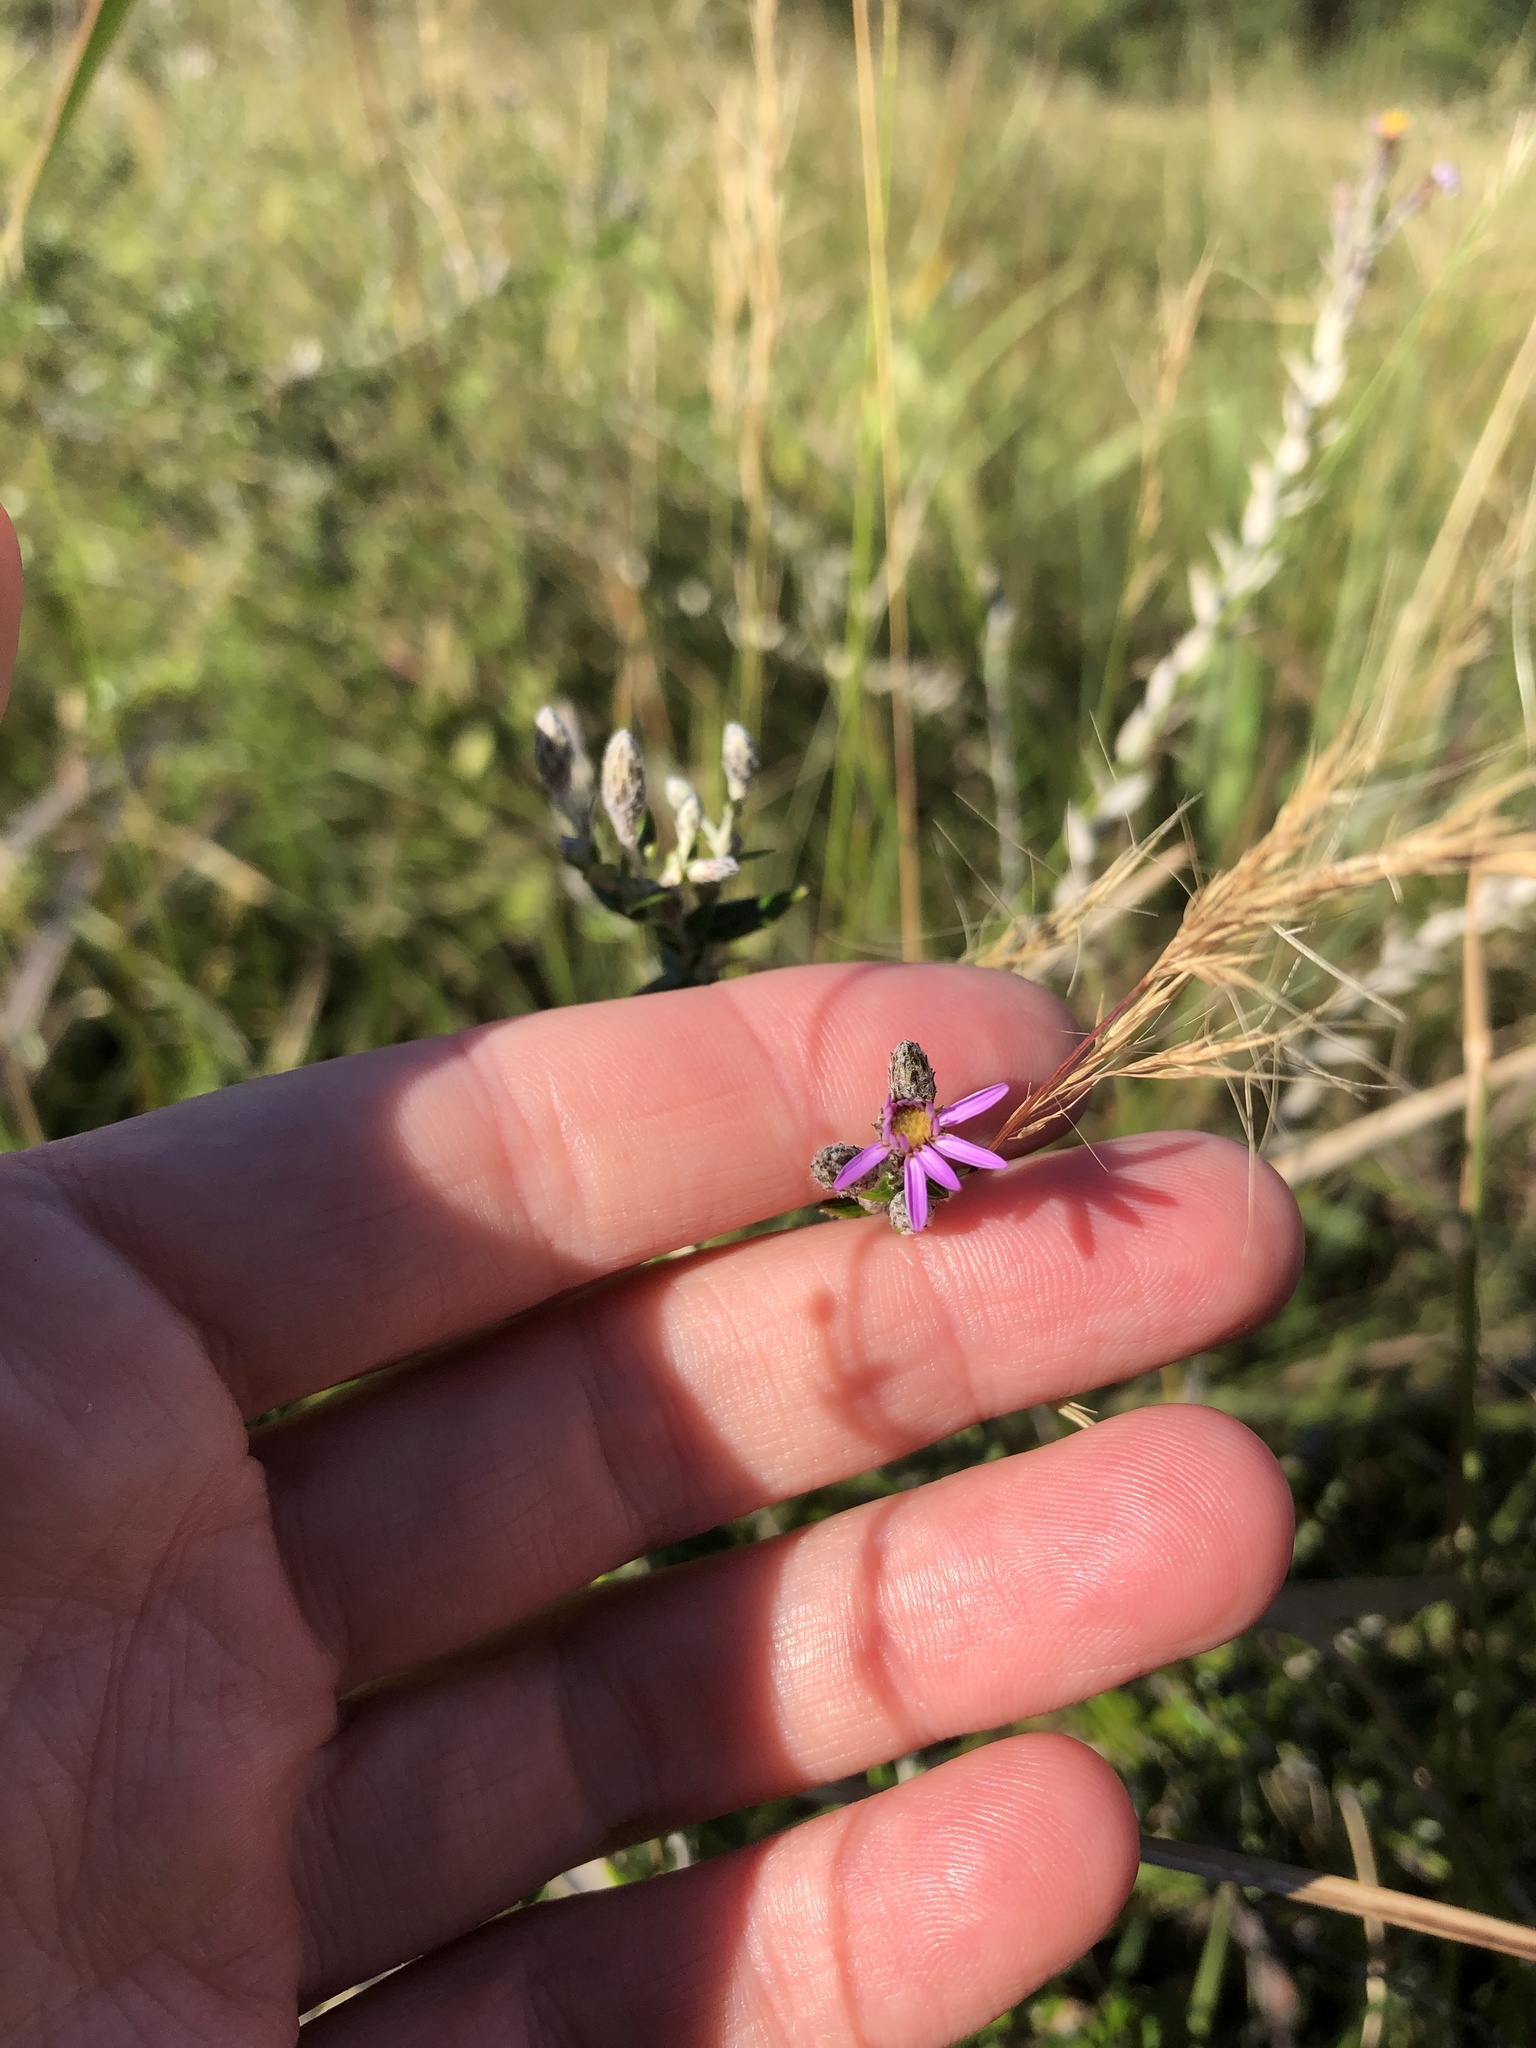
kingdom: Plantae
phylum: Tracheophyta
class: Magnoliopsida
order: Asterales
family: Asteraceae
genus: Athrixia
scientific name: Athrixia phylicoides
